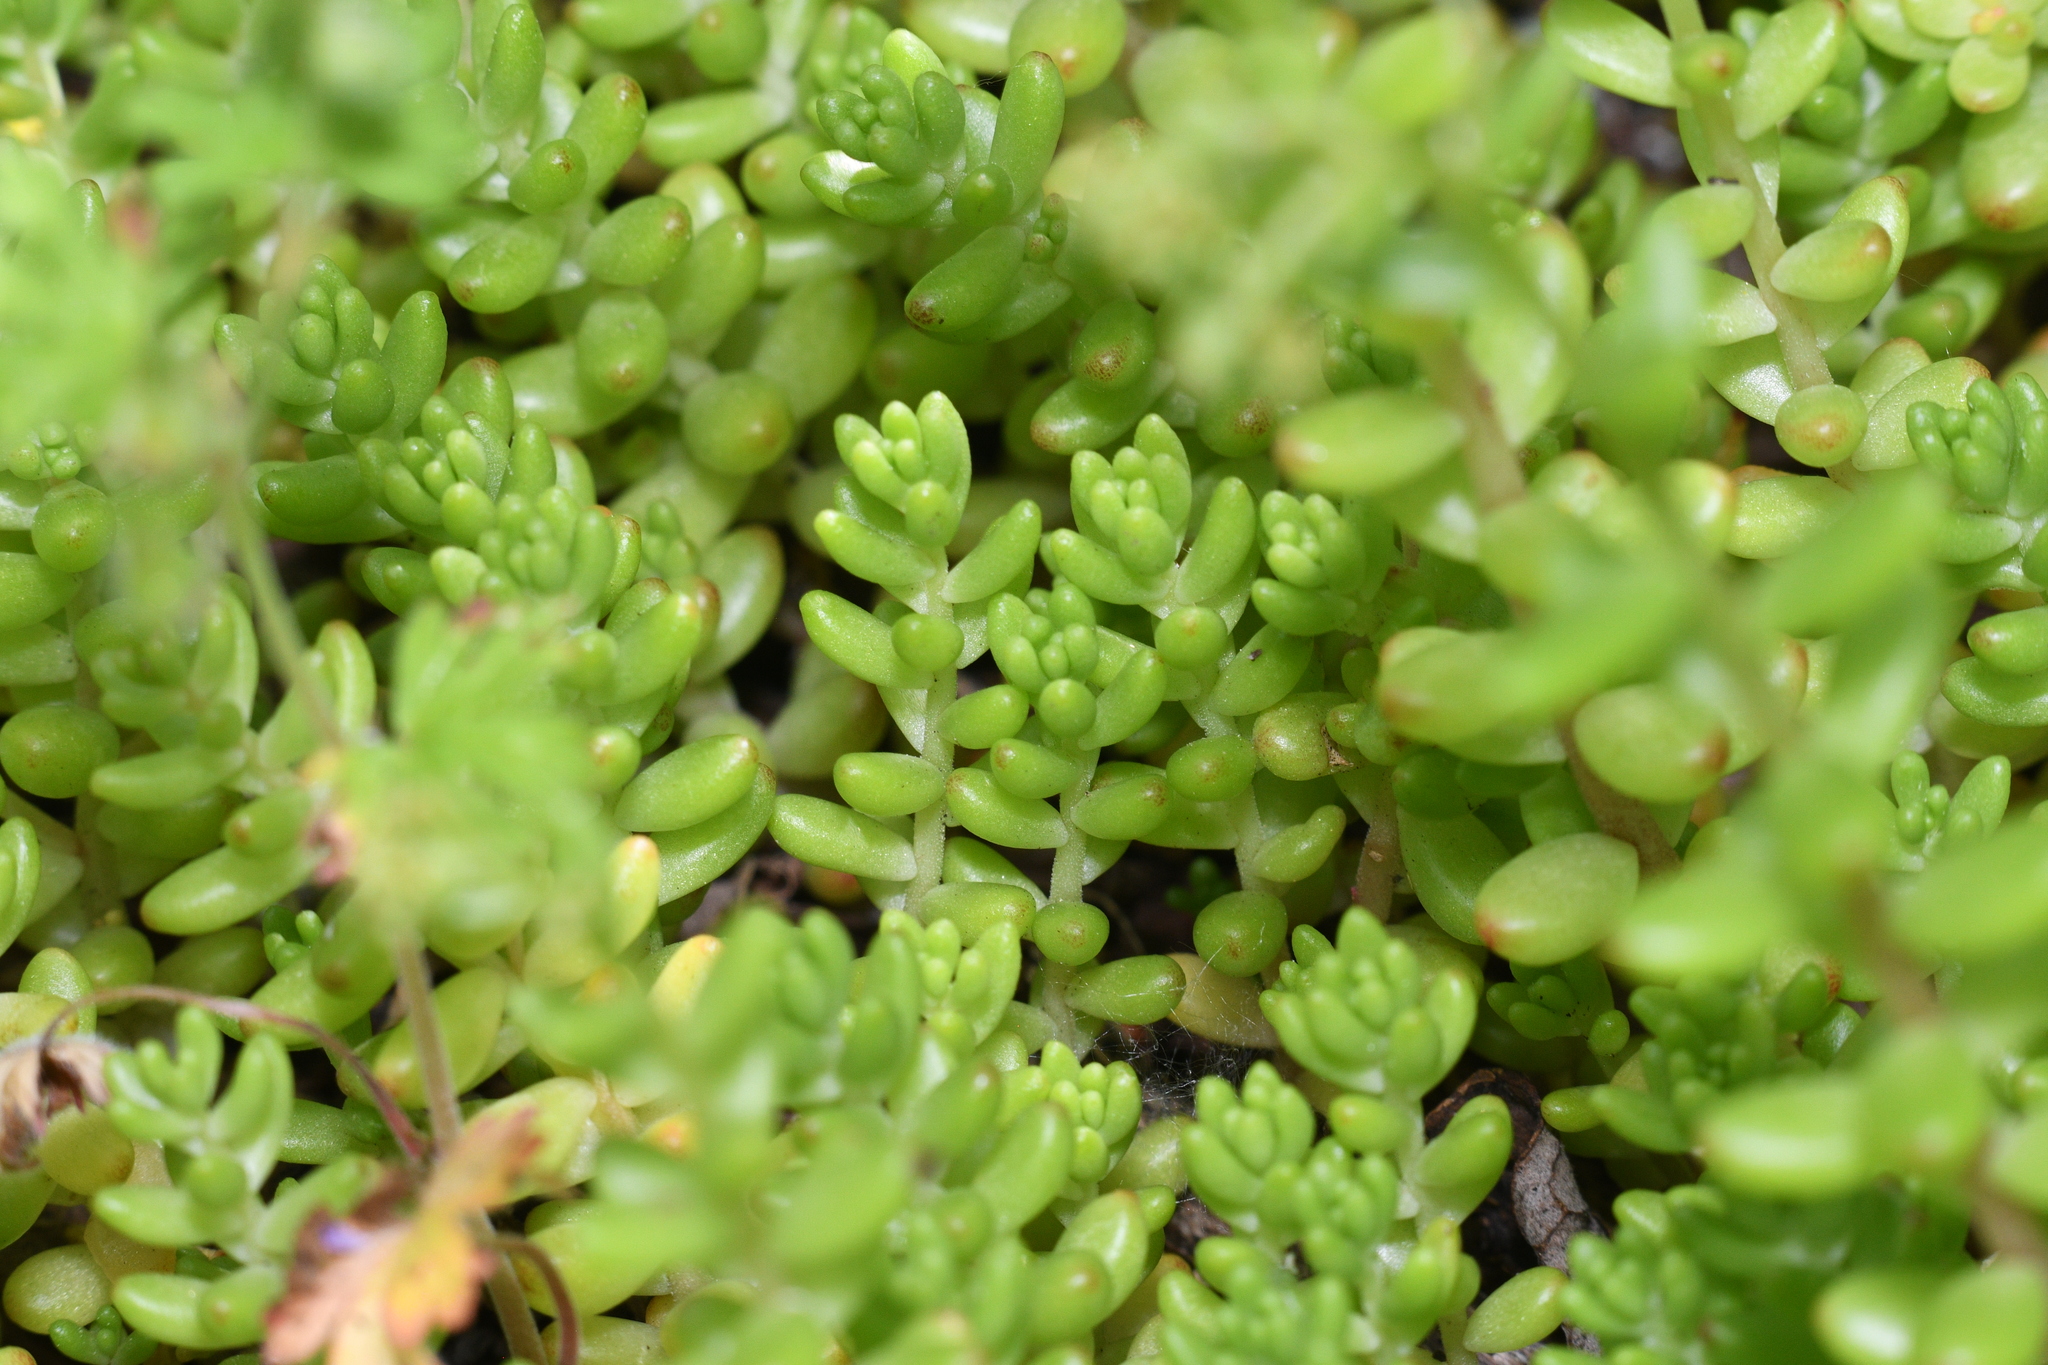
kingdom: Plantae
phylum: Tracheophyta
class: Magnoliopsida
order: Saxifragales
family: Crassulaceae
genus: Sedum
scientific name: Sedum album
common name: White stonecrop
